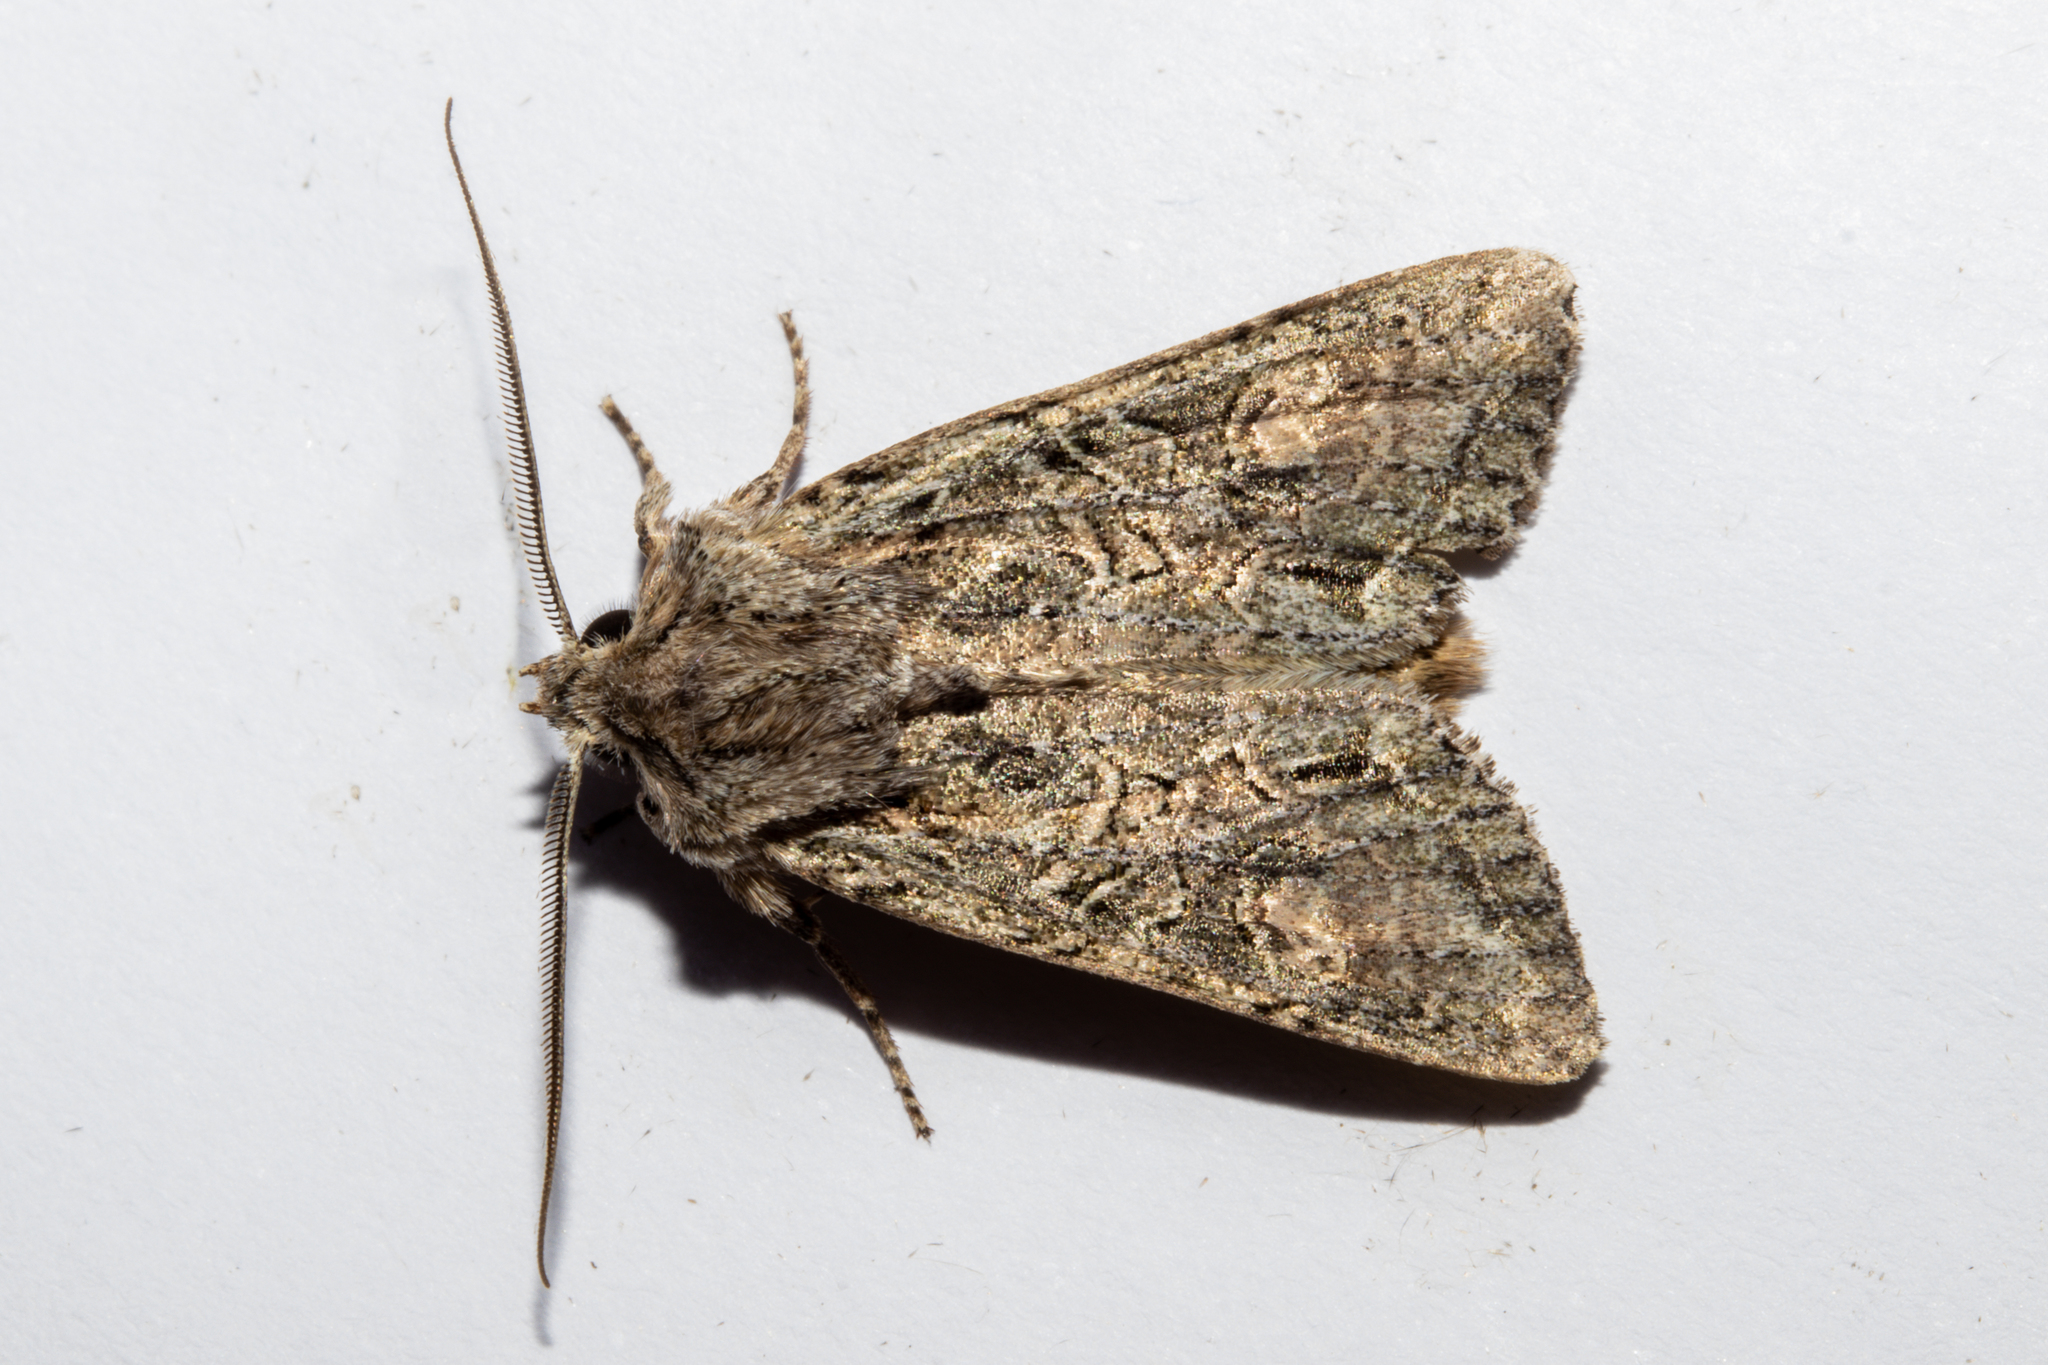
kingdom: Animalia
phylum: Arthropoda
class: Insecta
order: Lepidoptera
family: Noctuidae
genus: Ichneutica
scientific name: Ichneutica mutans
